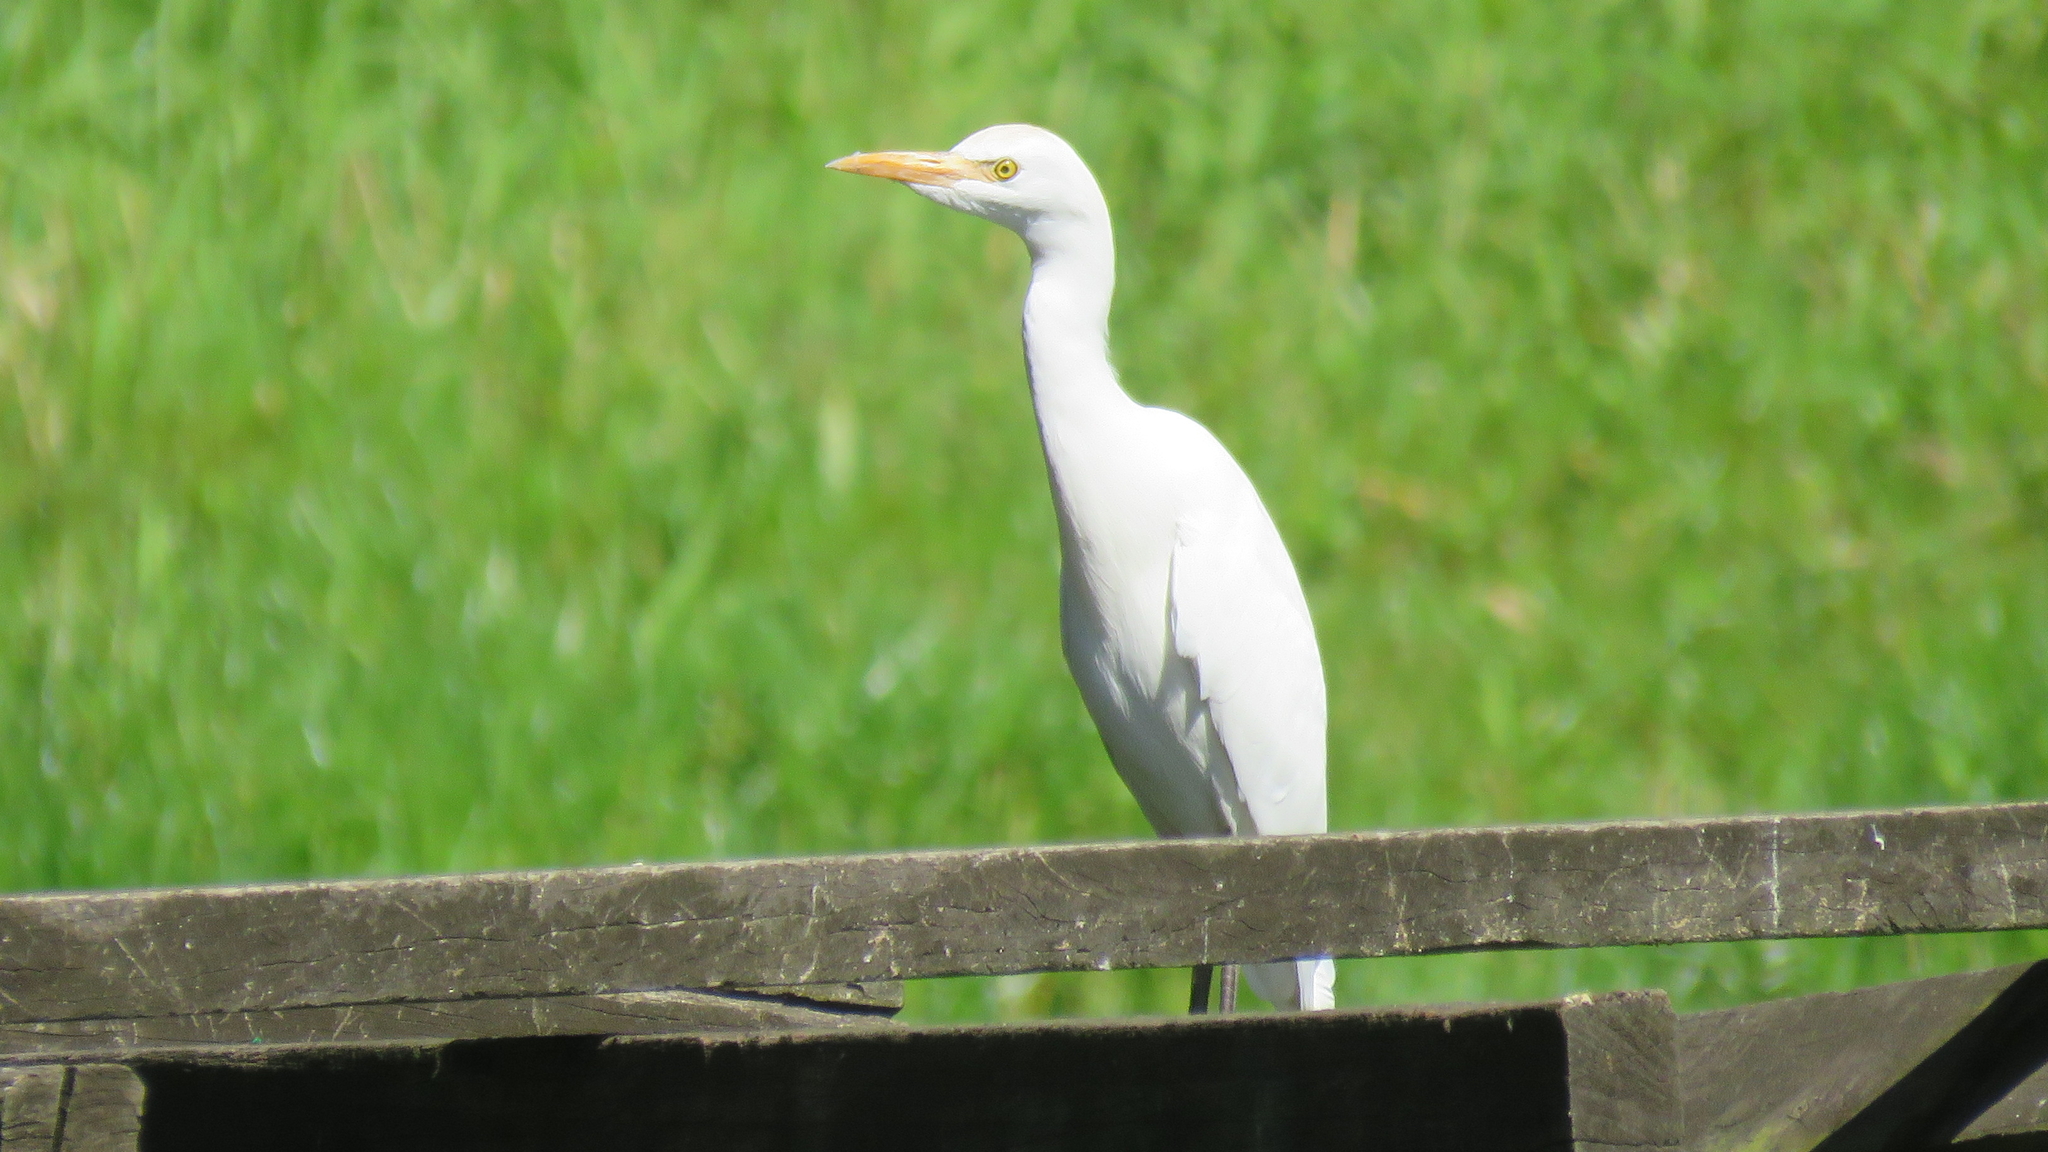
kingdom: Animalia
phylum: Chordata
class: Aves
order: Pelecaniformes
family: Ardeidae
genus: Bubulcus
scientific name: Bubulcus ibis
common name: Cattle egret
